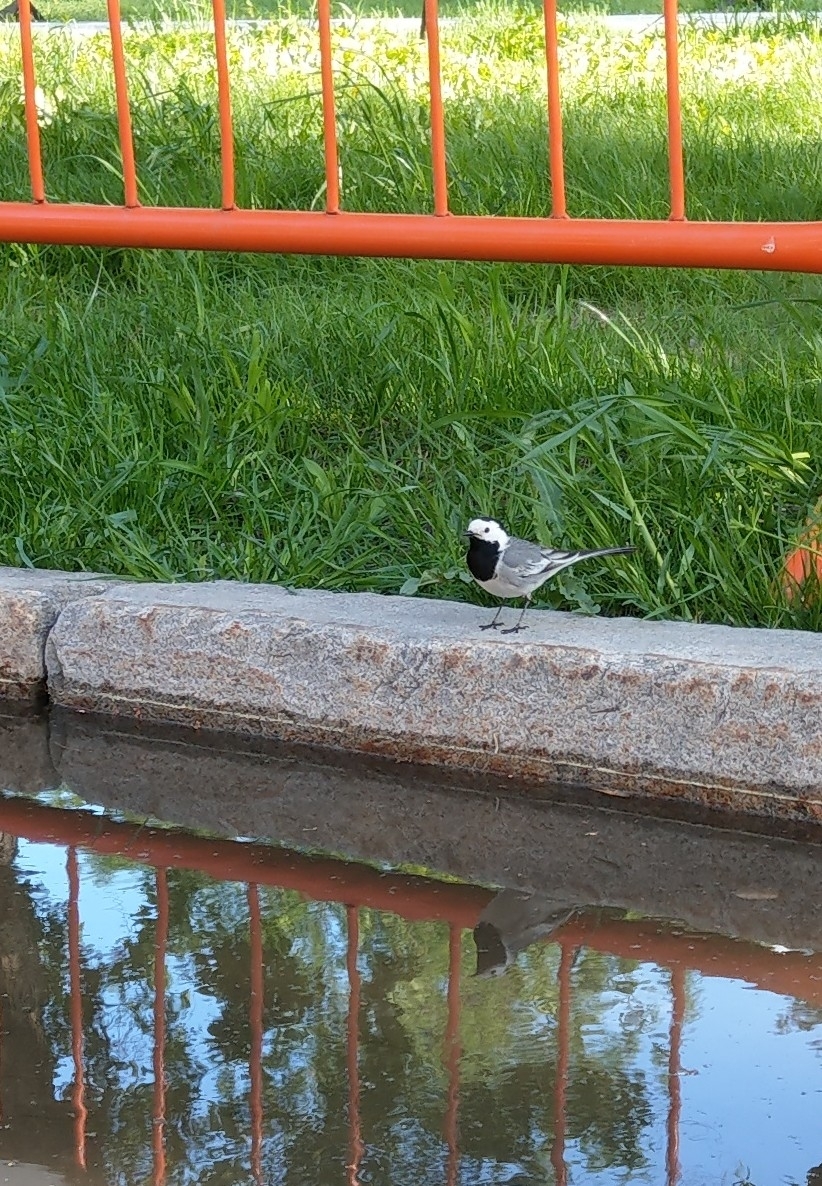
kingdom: Animalia
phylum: Chordata
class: Aves
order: Passeriformes
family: Motacillidae
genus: Motacilla
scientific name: Motacilla alba
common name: White wagtail
